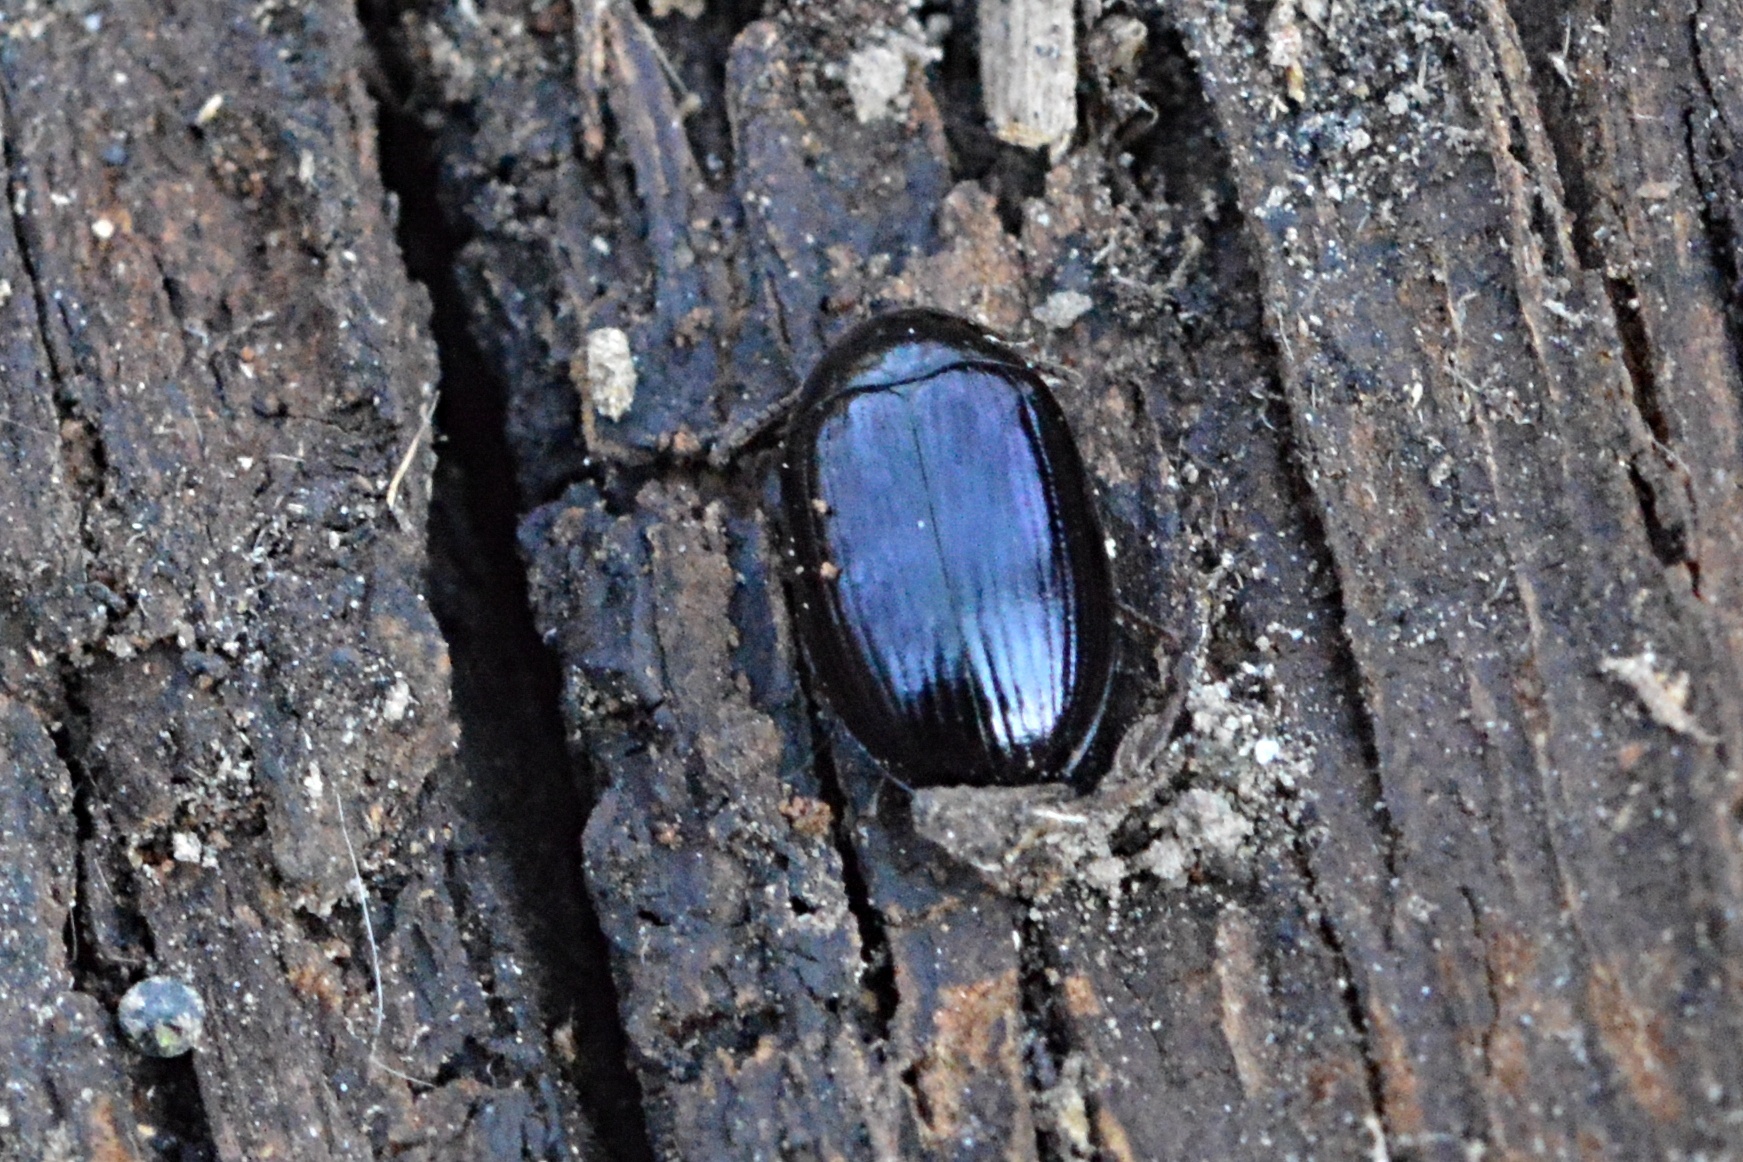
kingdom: Animalia
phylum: Arthropoda
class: Insecta
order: Coleoptera
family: Tenebrionidae
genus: Platydema
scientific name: Platydema violaceum
